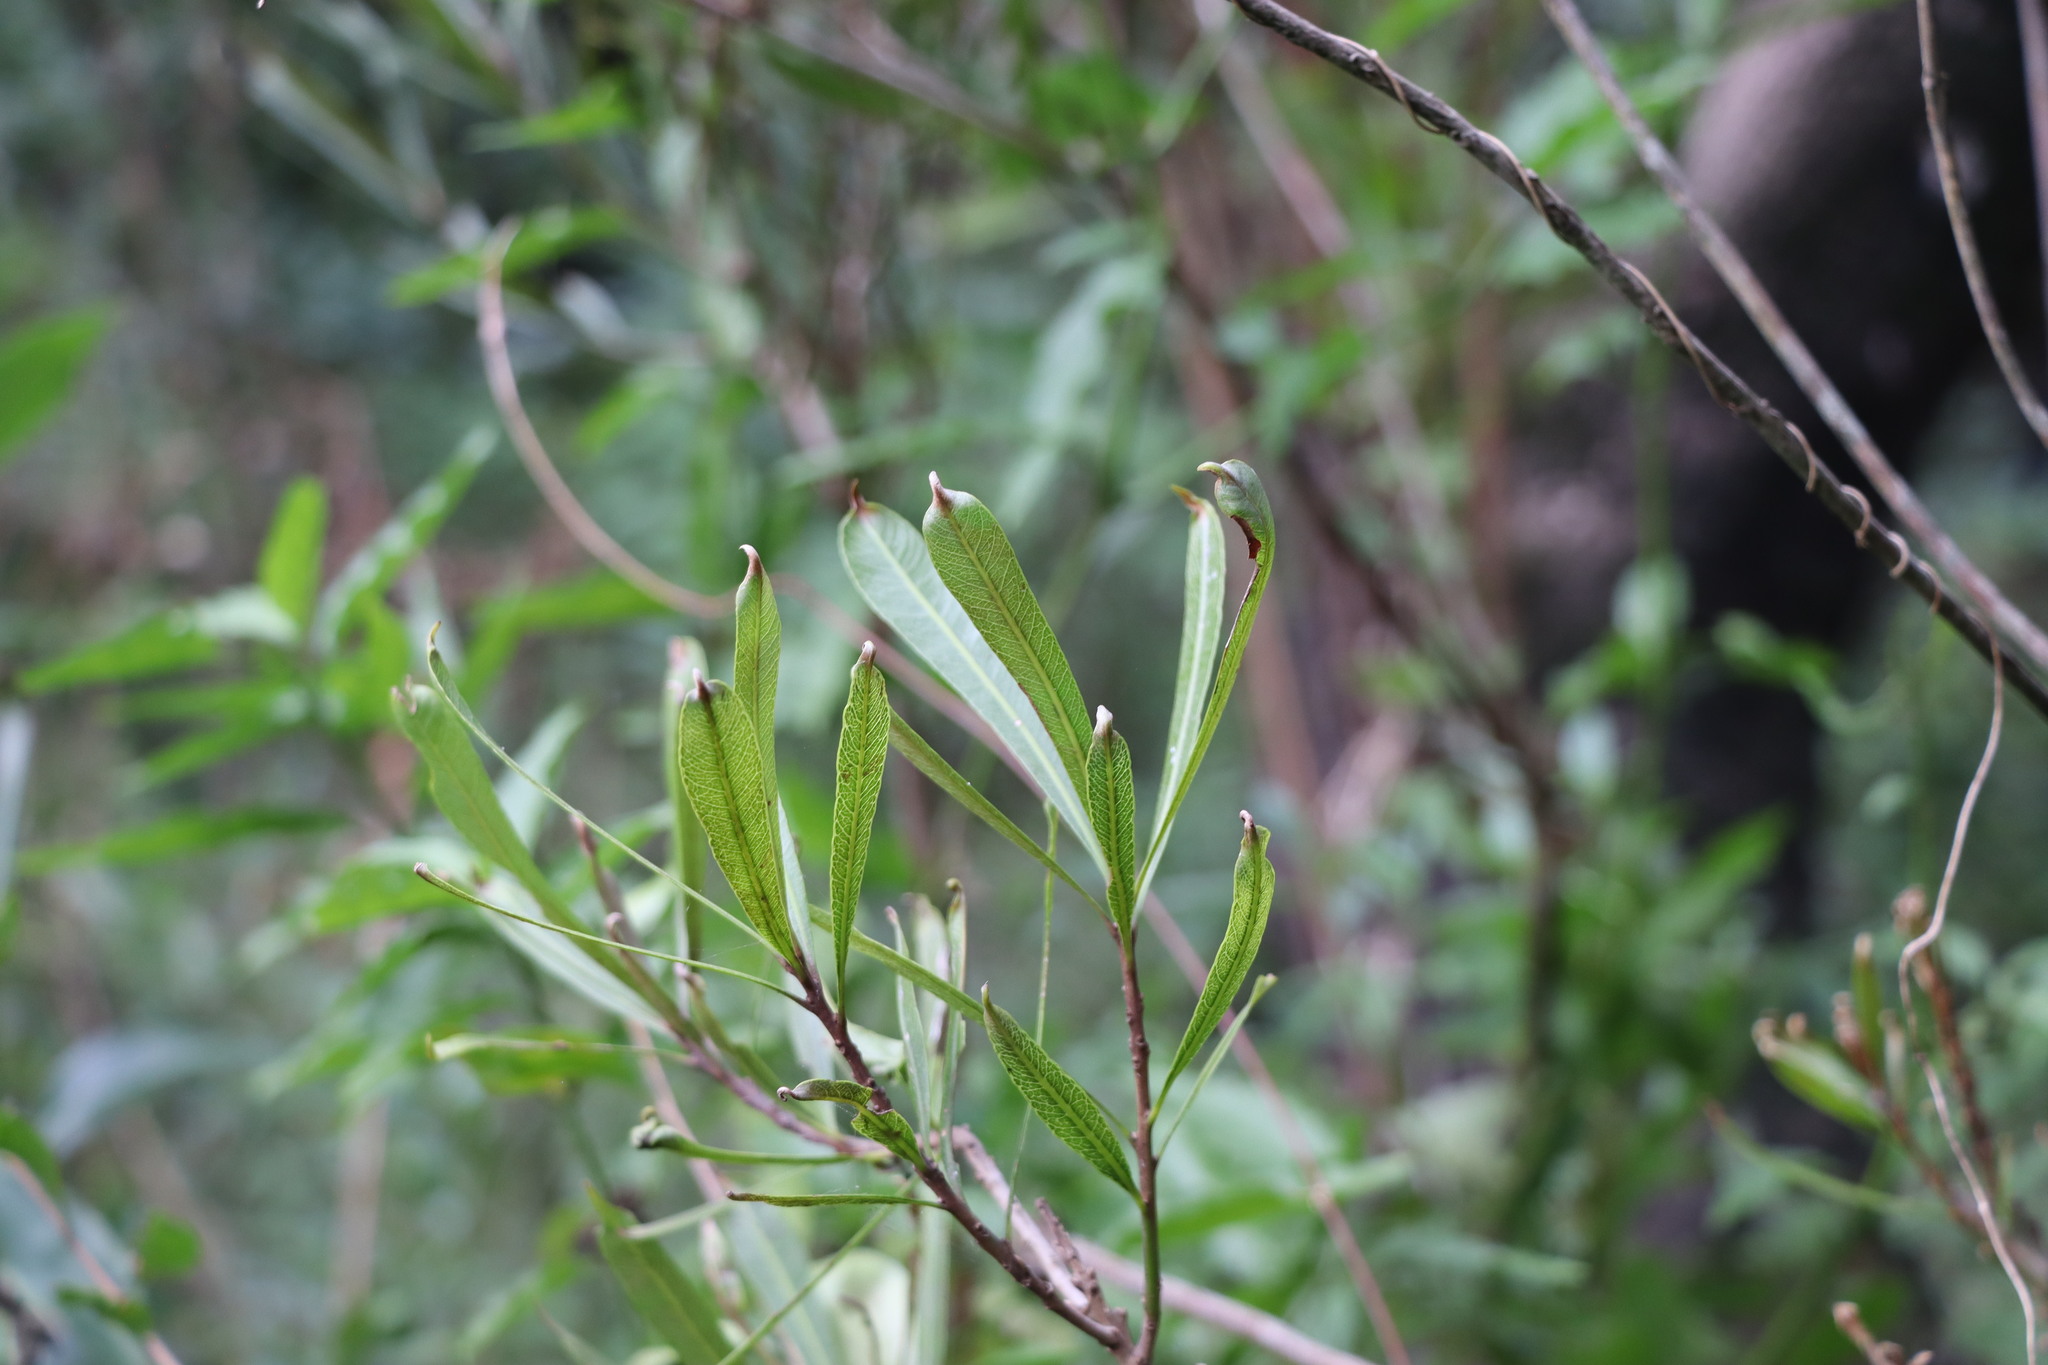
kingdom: Plantae
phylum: Tracheophyta
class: Magnoliopsida
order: Ericales
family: Sapotaceae
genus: Labatia
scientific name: Labatia salicifolia
